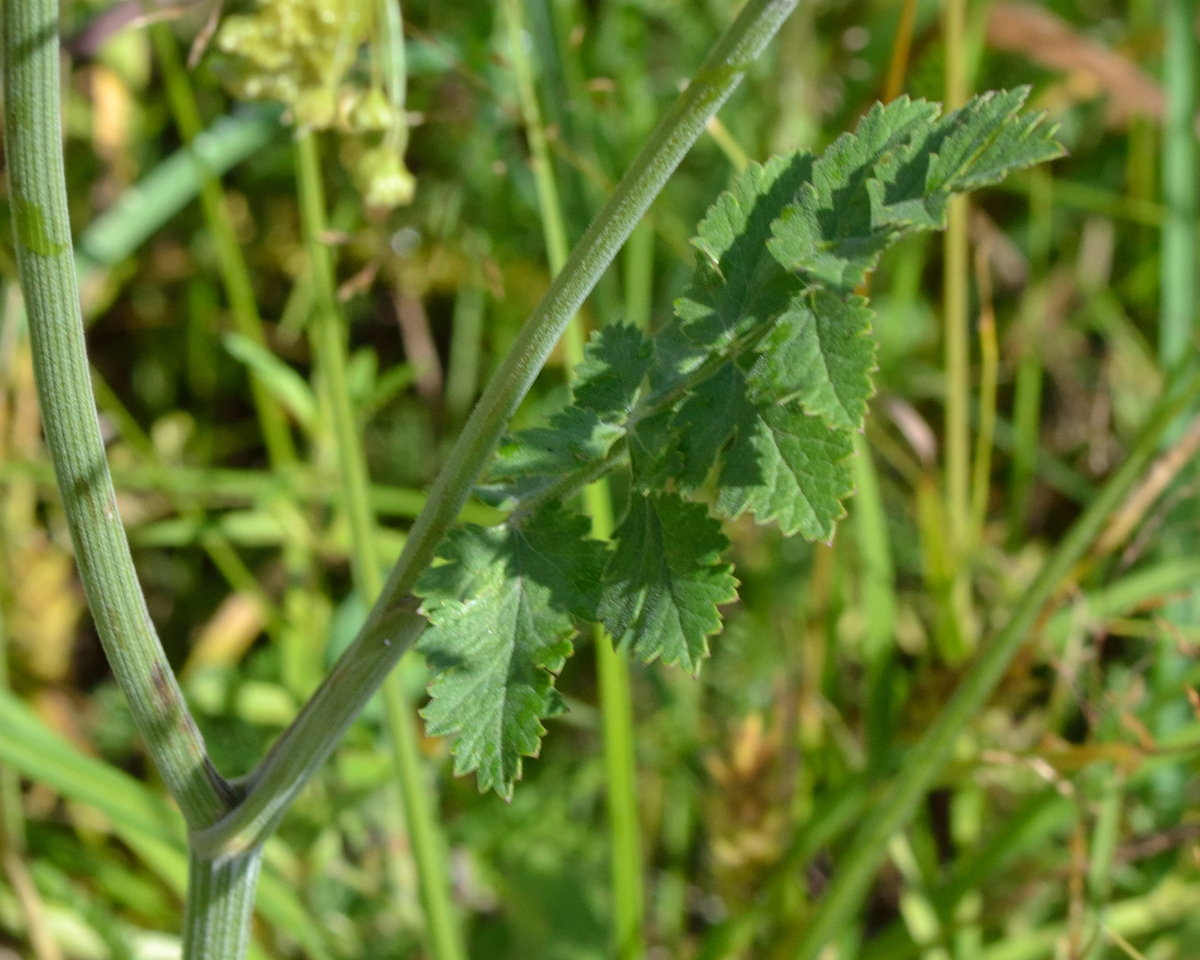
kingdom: Plantae
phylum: Tracheophyta
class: Magnoliopsida
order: Apiales
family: Apiaceae
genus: Pimpinella
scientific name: Pimpinella saxifraga
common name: Burnet-saxifrage
